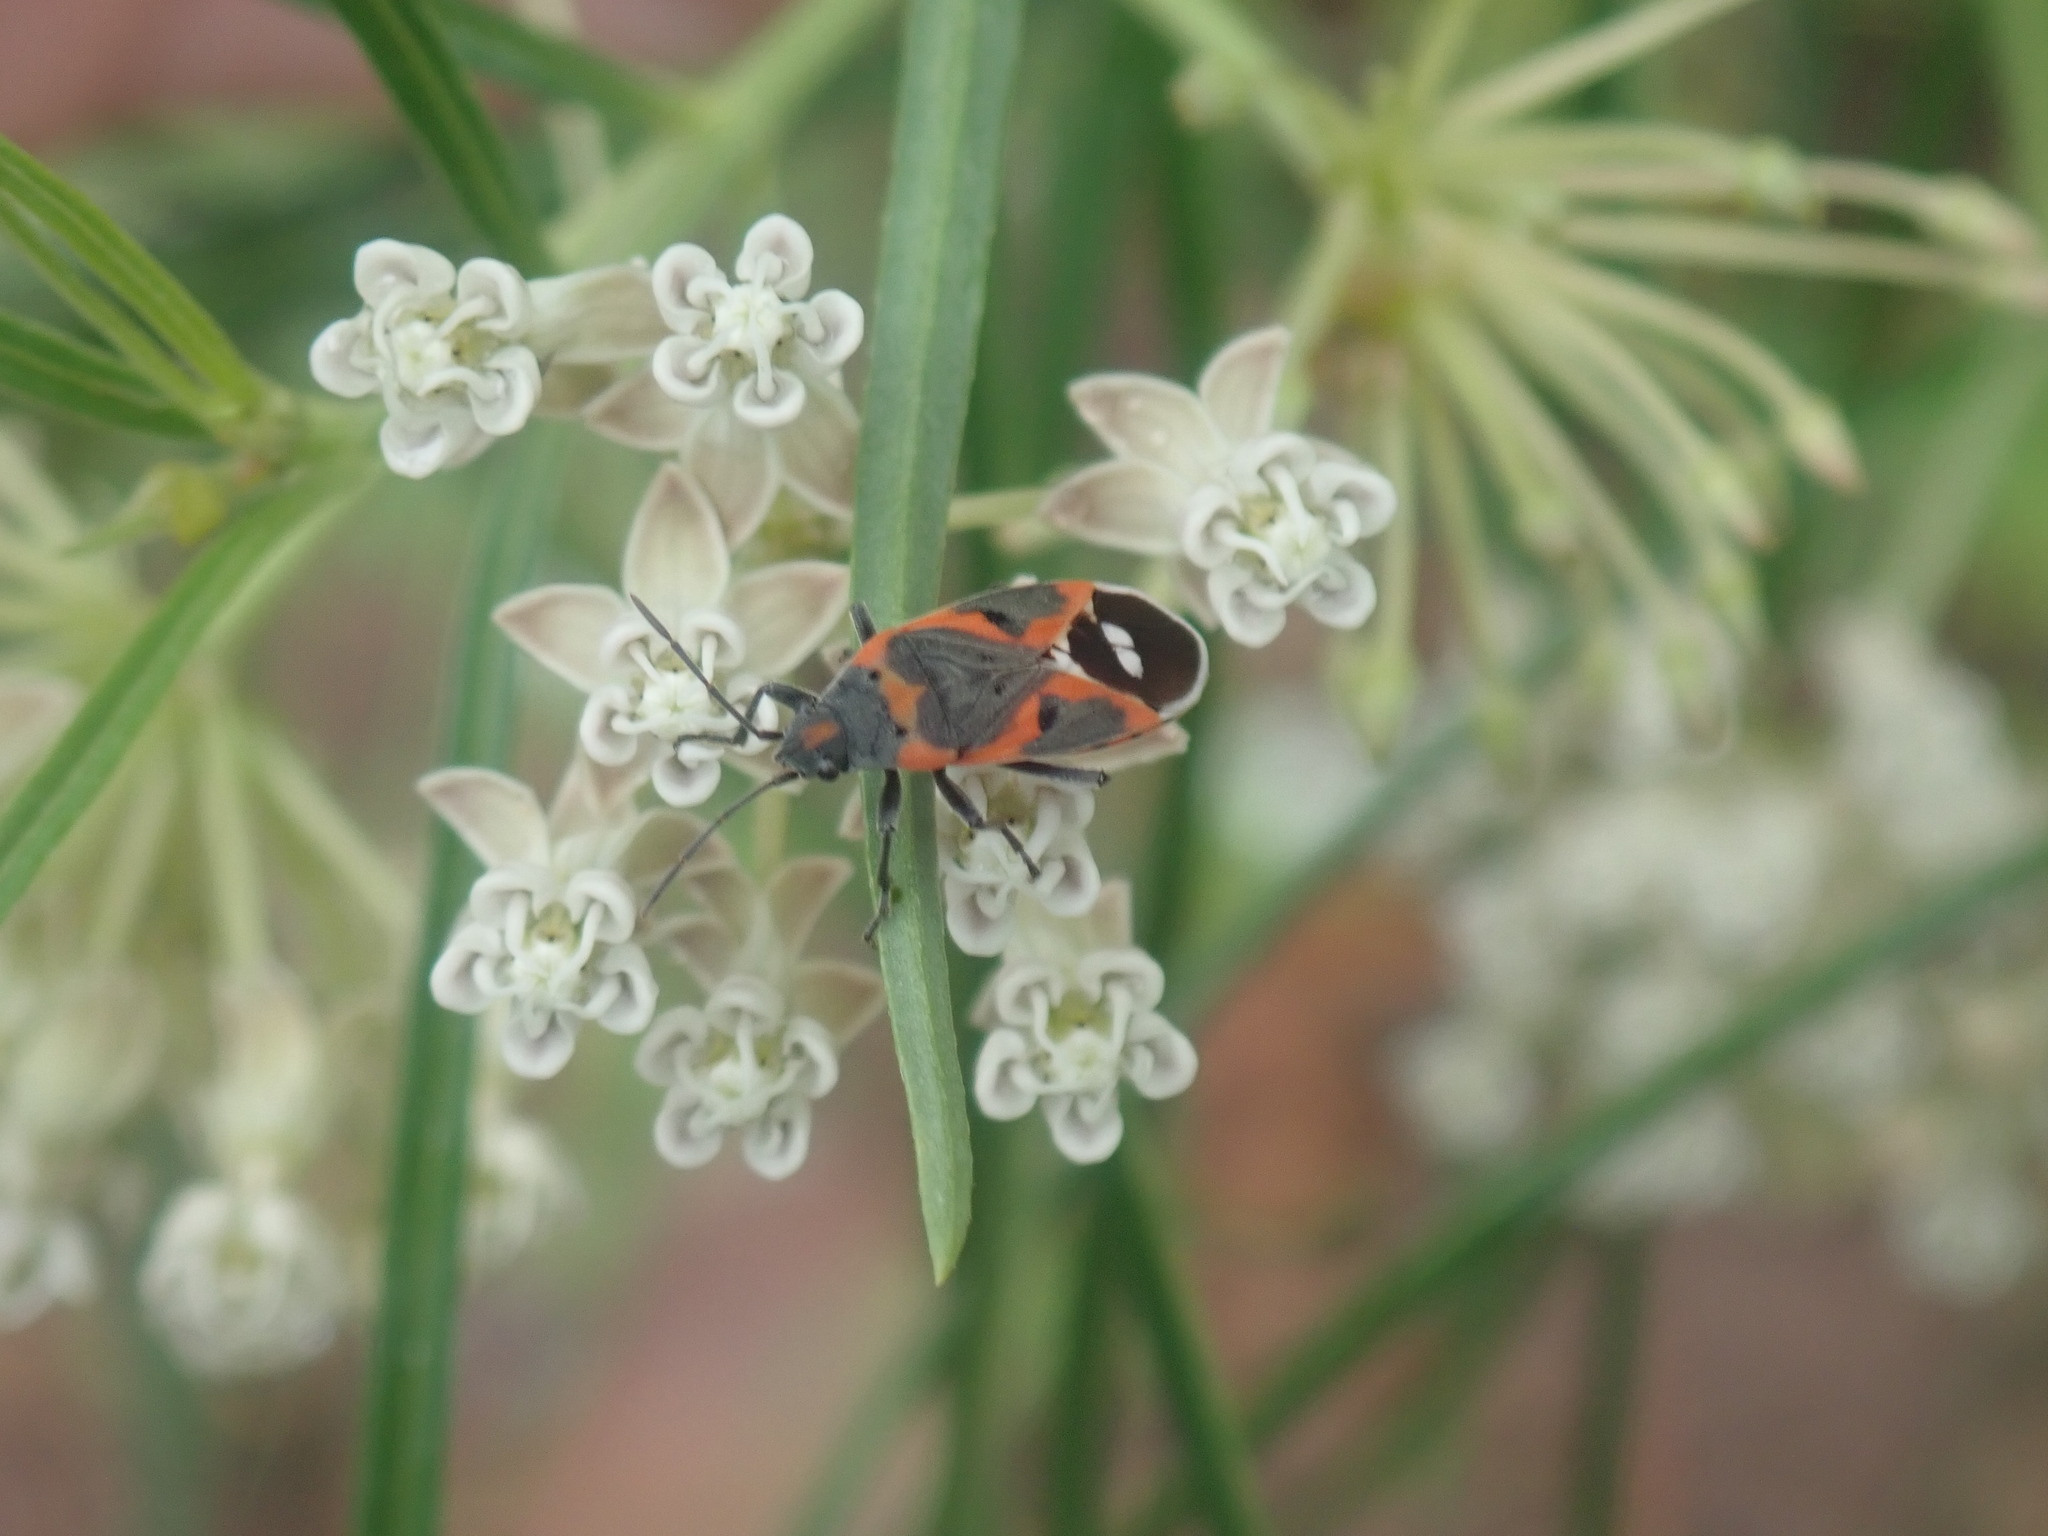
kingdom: Animalia
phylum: Arthropoda
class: Insecta
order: Hemiptera
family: Lygaeidae
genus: Lygaeus
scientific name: Lygaeus kalmii
